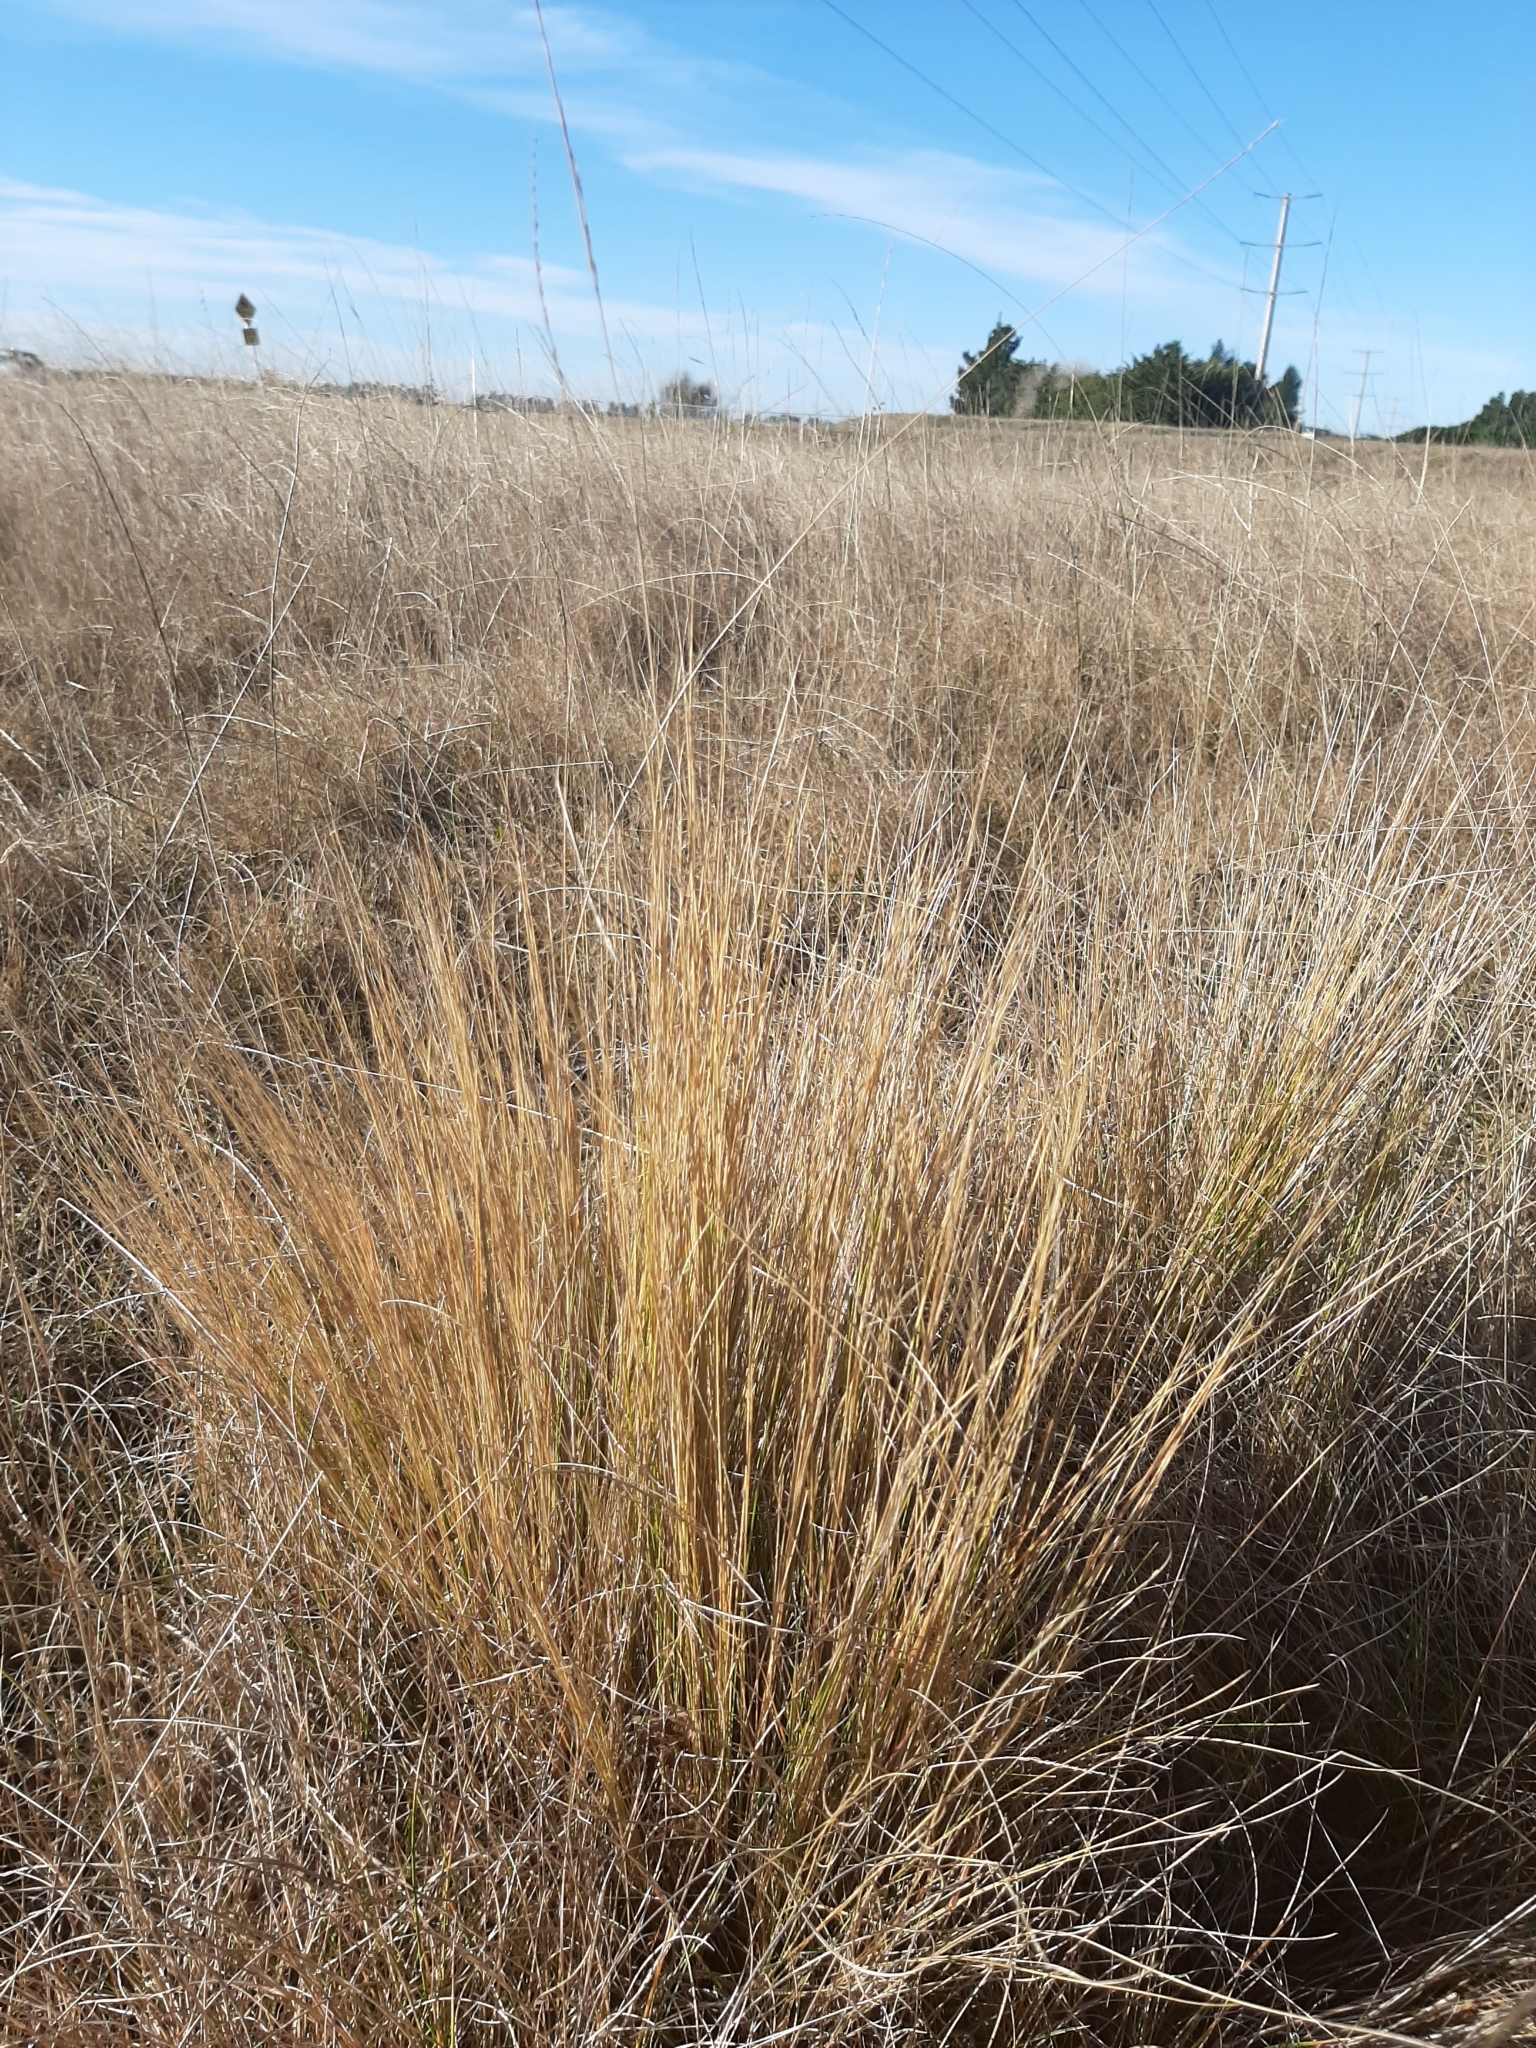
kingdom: Plantae
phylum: Tracheophyta
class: Liliopsida
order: Poales
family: Poaceae
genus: Festuca
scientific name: Festuca matthewsii
